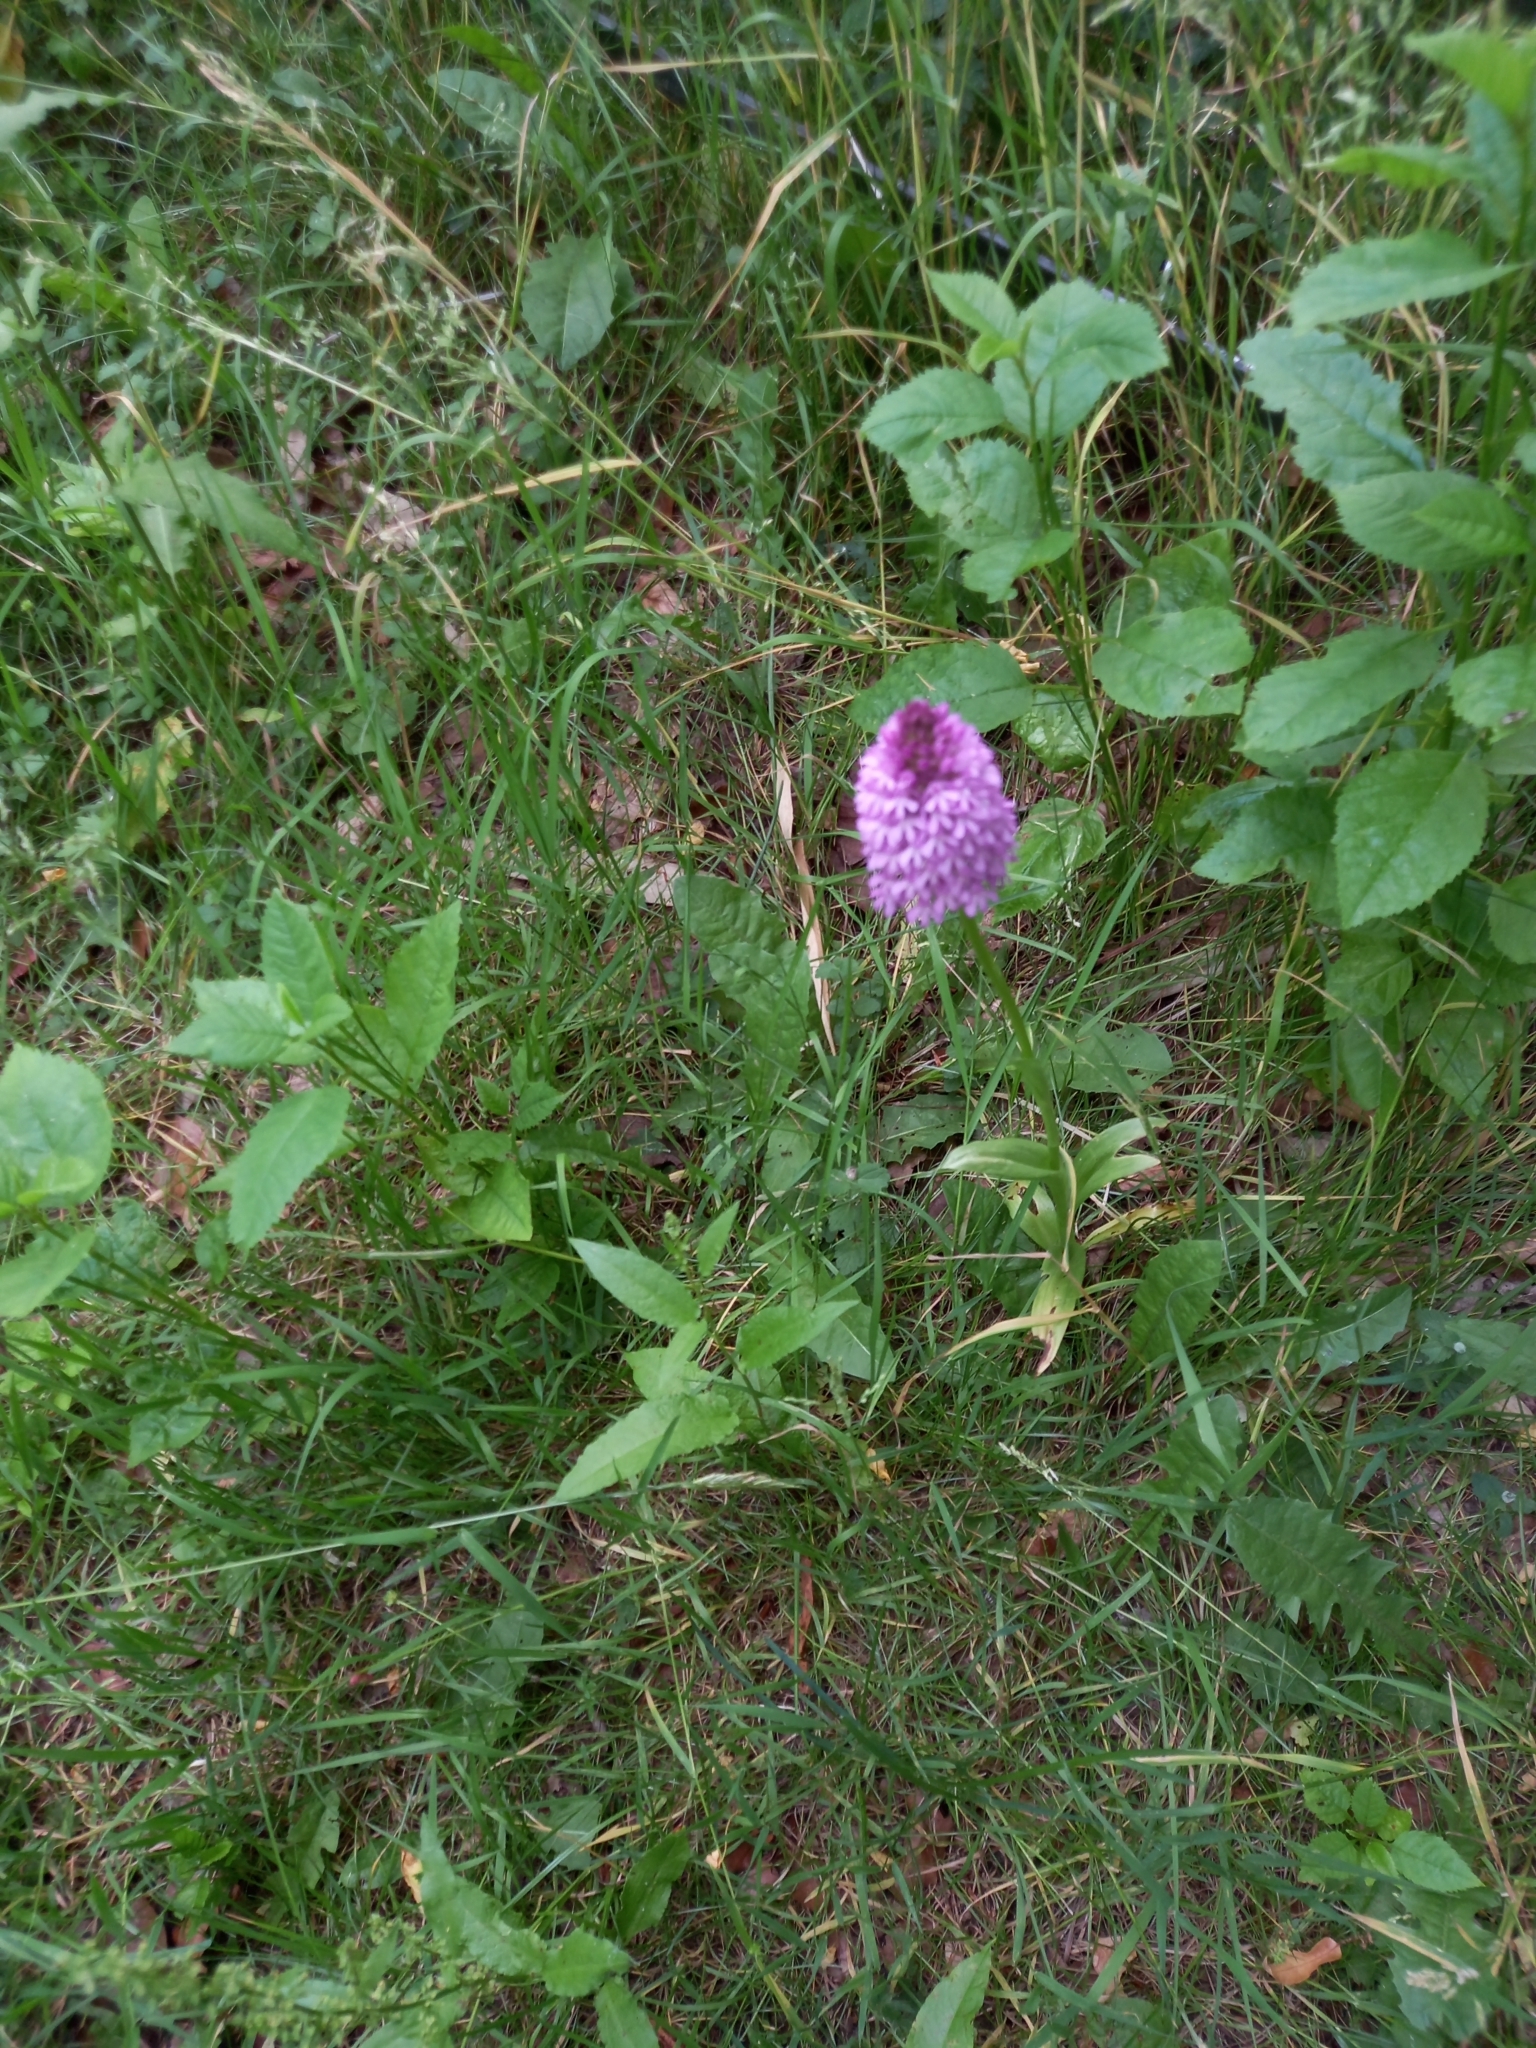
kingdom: Plantae
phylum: Tracheophyta
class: Liliopsida
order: Asparagales
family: Orchidaceae
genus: Anacamptis
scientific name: Anacamptis pyramidalis
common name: Pyramidal orchid
